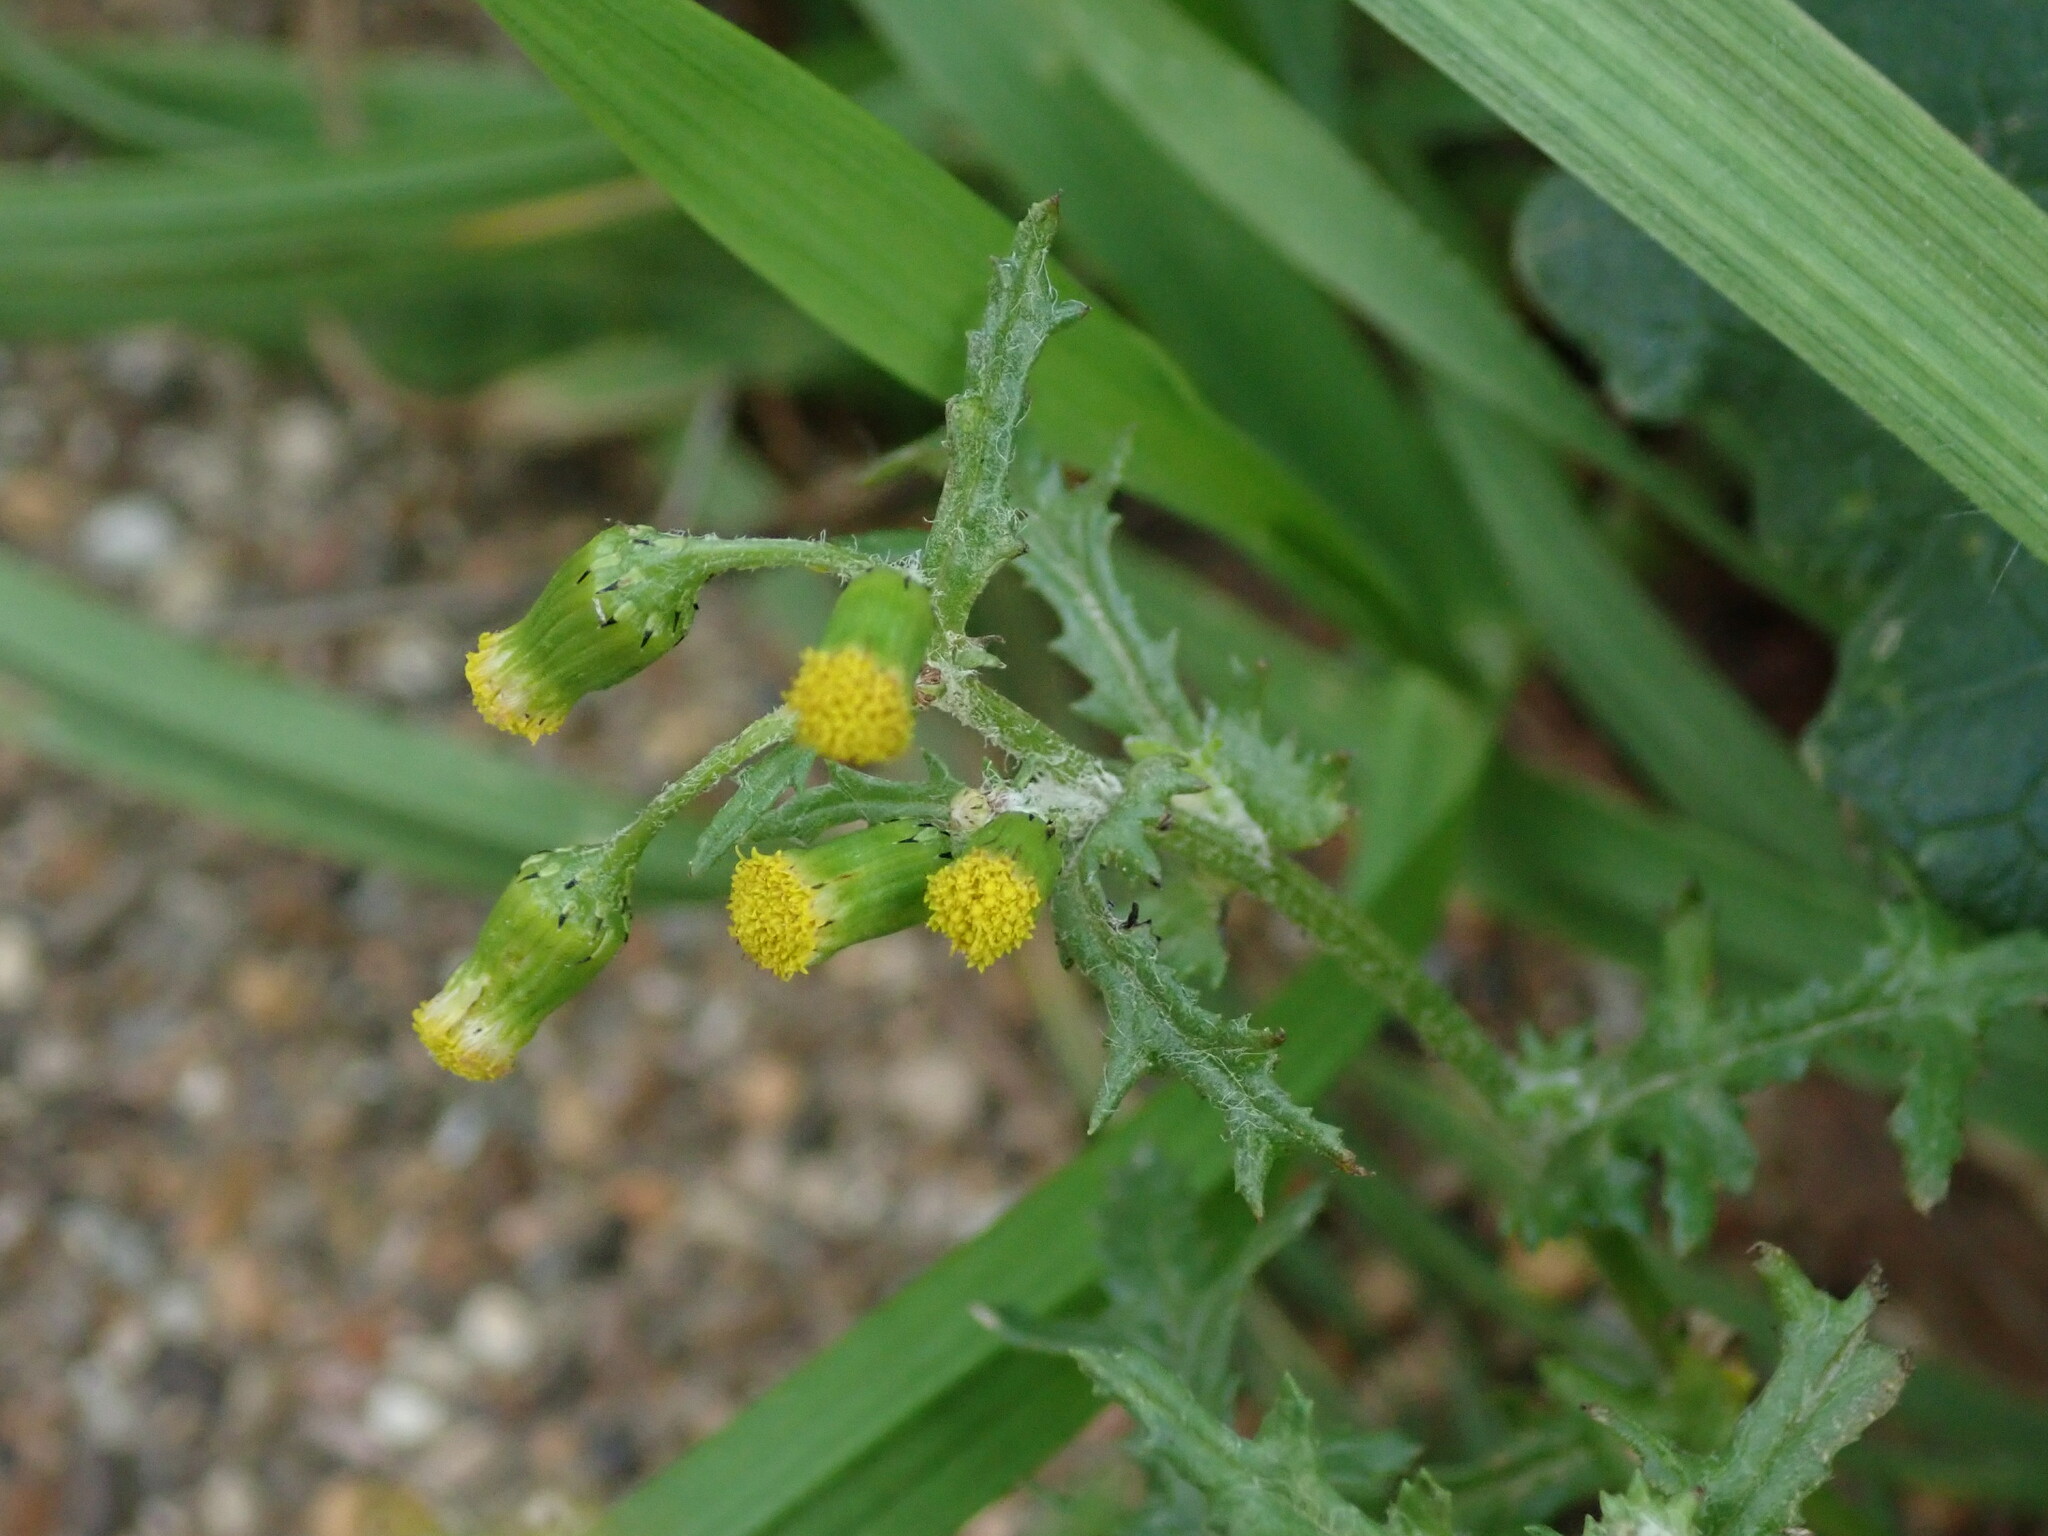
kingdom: Plantae
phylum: Tracheophyta
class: Magnoliopsida
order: Asterales
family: Asteraceae
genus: Senecio
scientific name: Senecio vulgaris
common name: Old-man-in-the-spring
